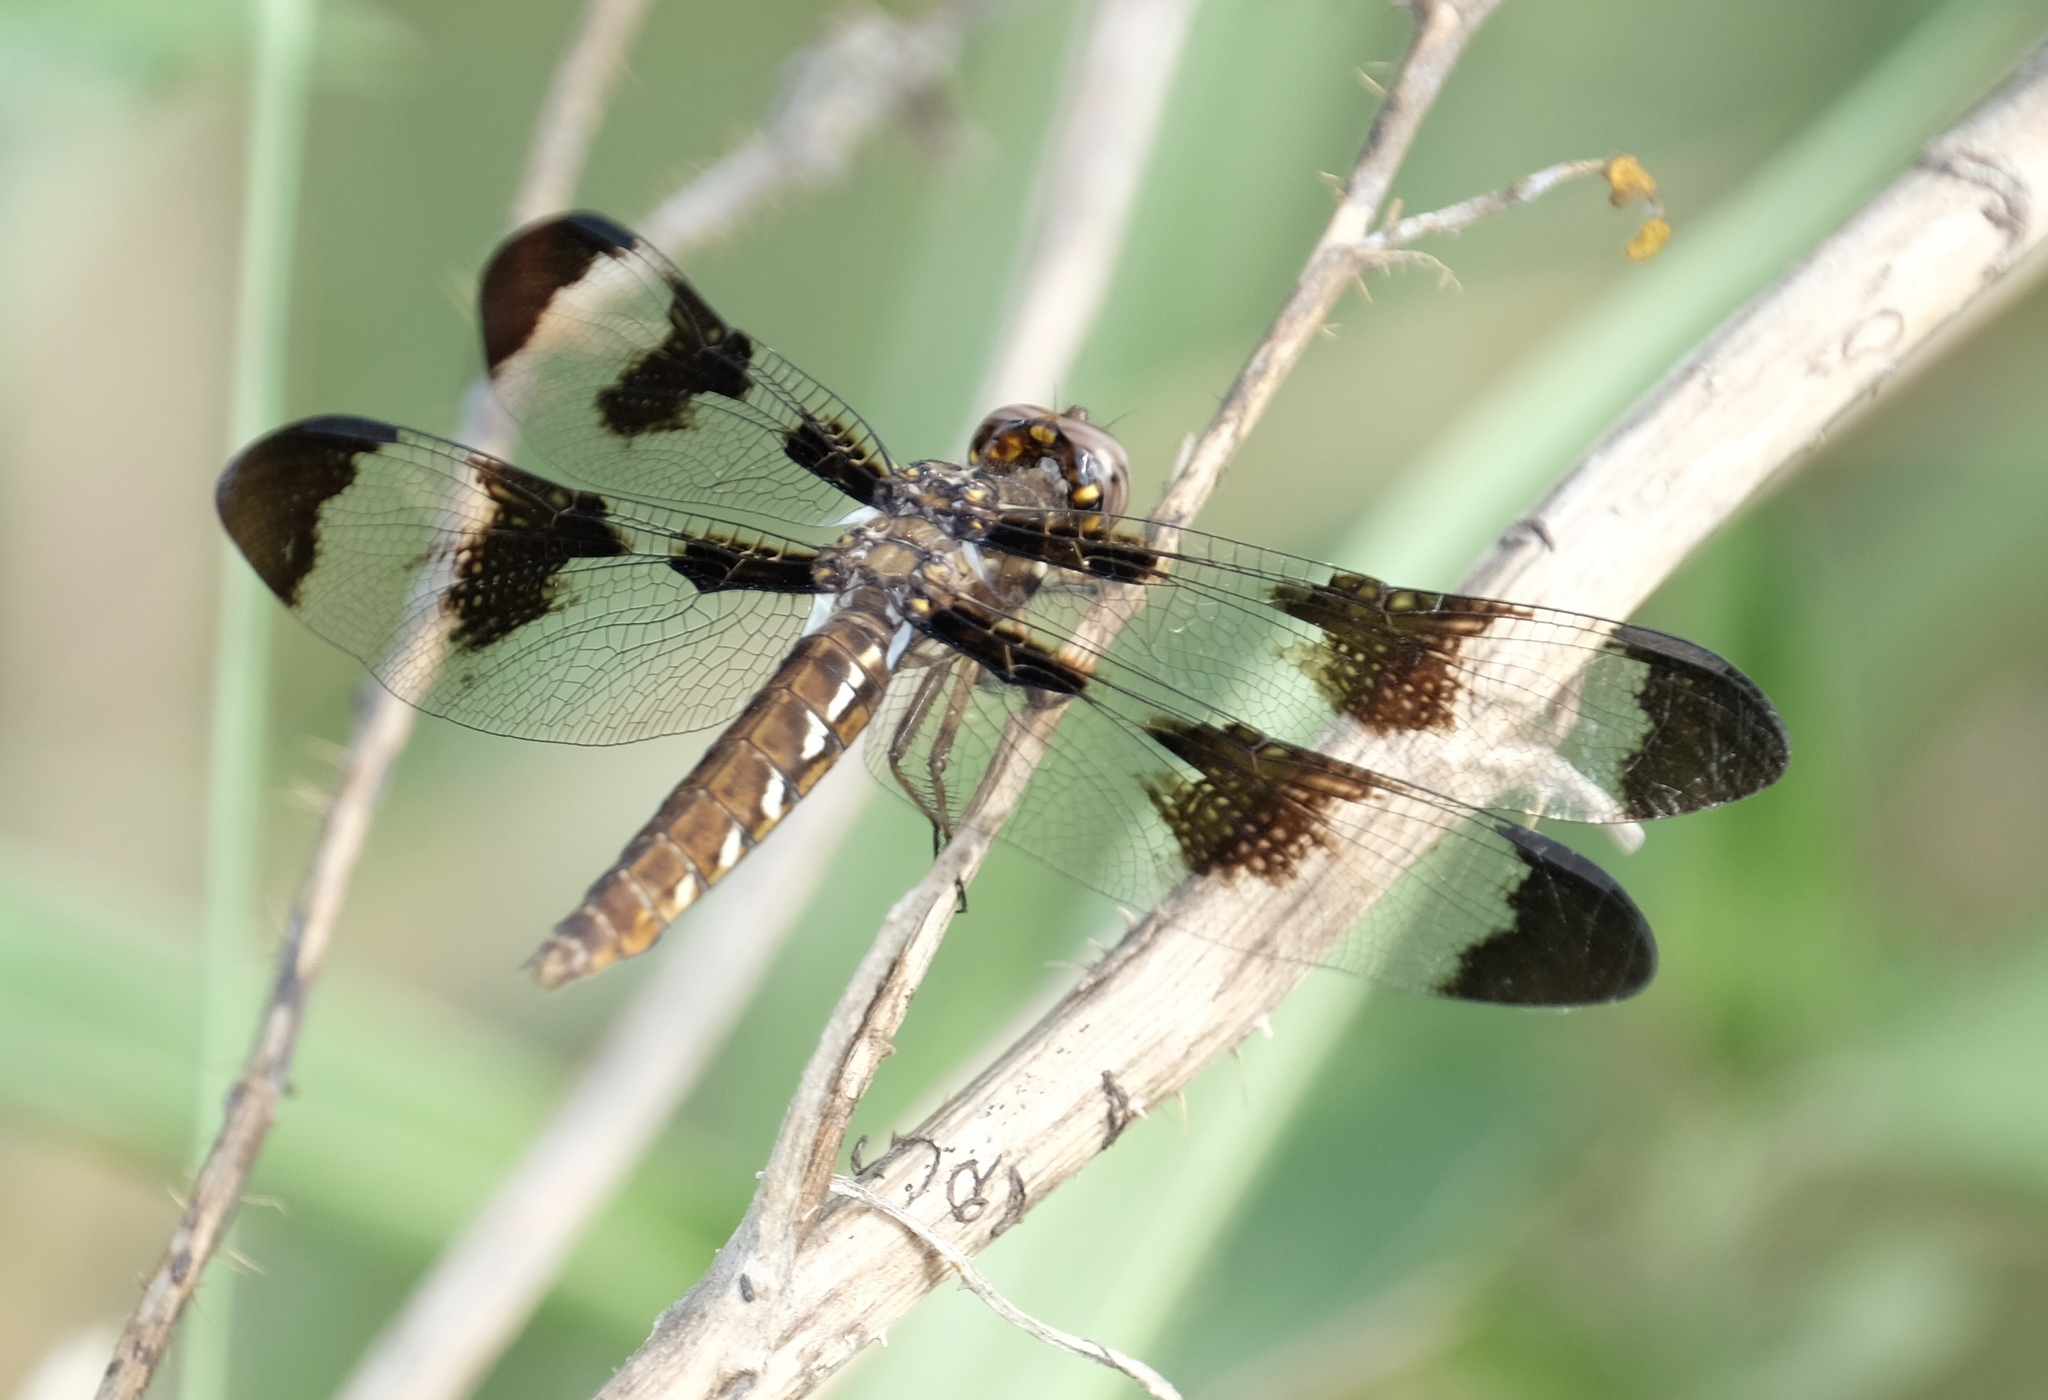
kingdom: Animalia
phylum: Arthropoda
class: Insecta
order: Odonata
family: Libellulidae
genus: Plathemis
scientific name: Plathemis lydia
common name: Common whitetail
